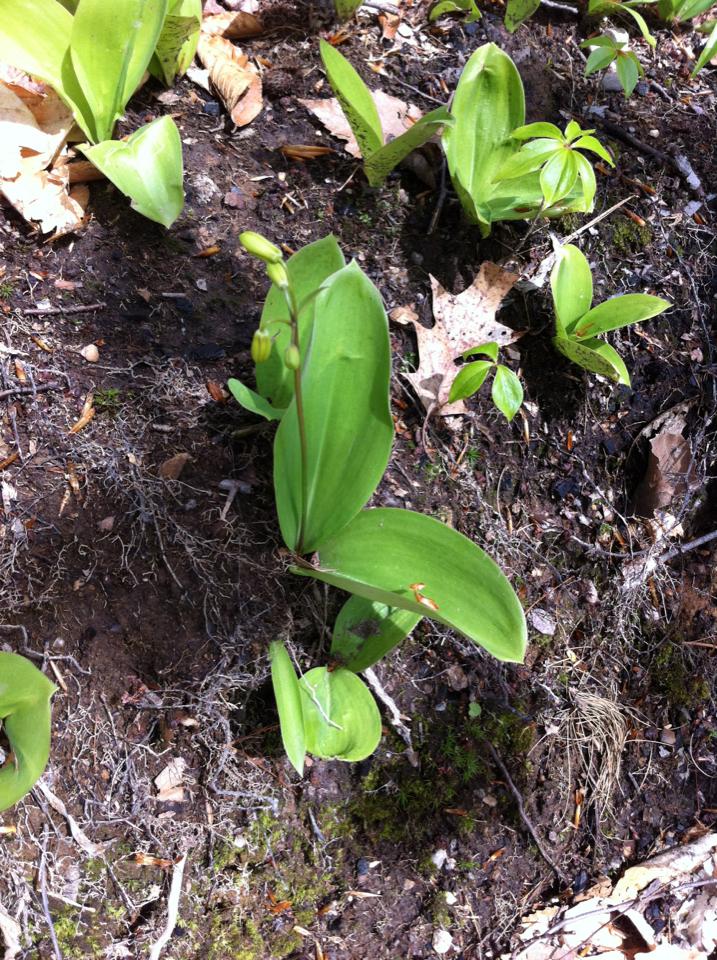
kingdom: Plantae
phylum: Tracheophyta
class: Liliopsida
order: Liliales
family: Liliaceae
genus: Clintonia
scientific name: Clintonia borealis
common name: Yellow clintonia
